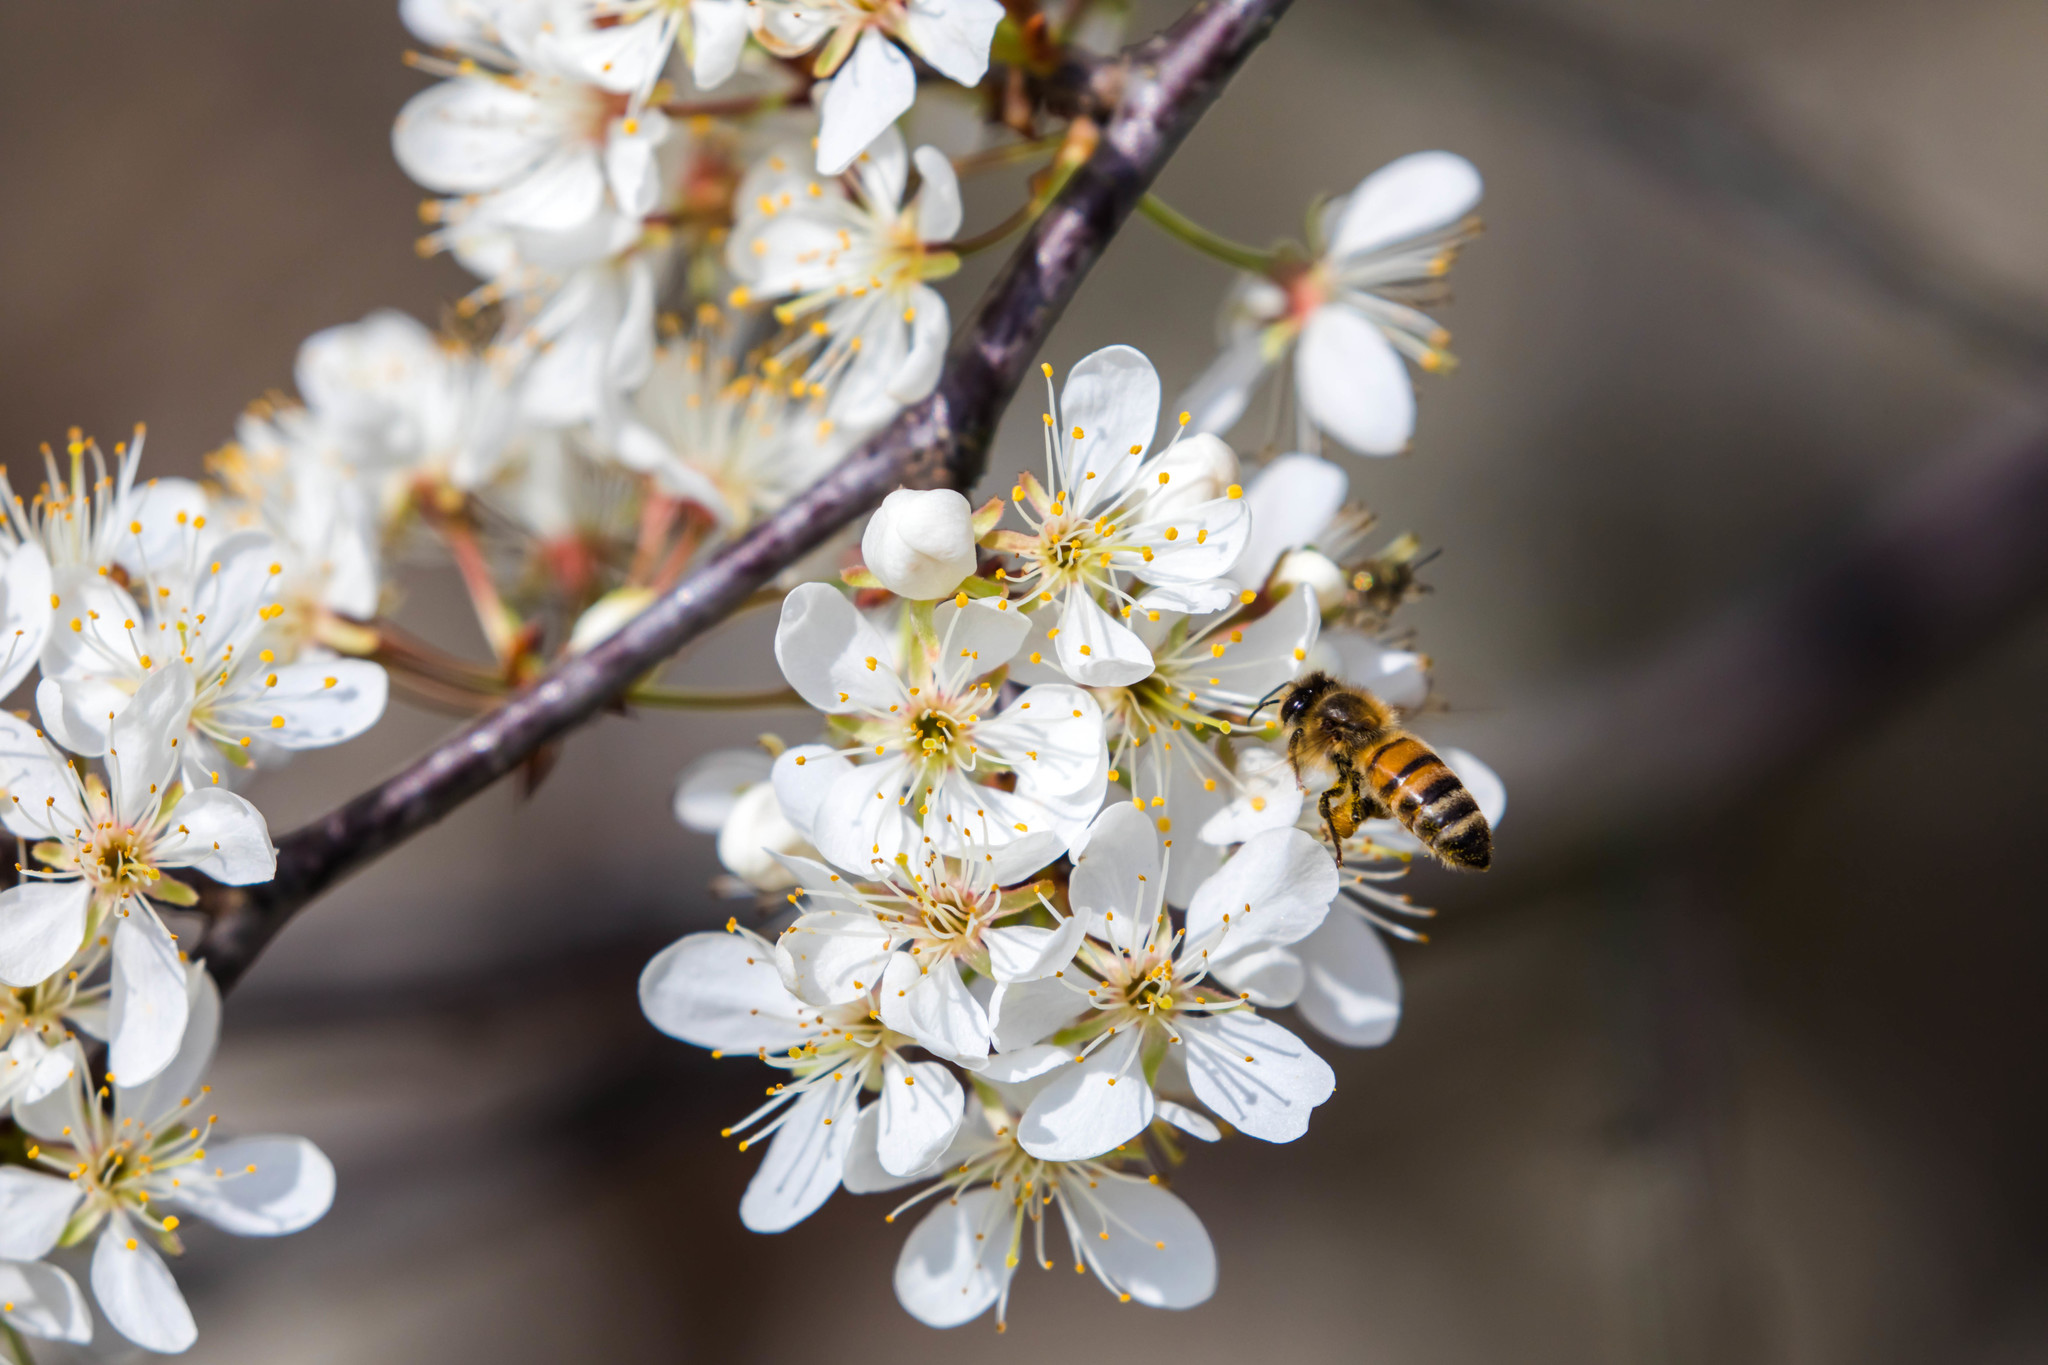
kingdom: Animalia
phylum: Arthropoda
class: Insecta
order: Hymenoptera
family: Apidae
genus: Apis
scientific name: Apis mellifera
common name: Honey bee
